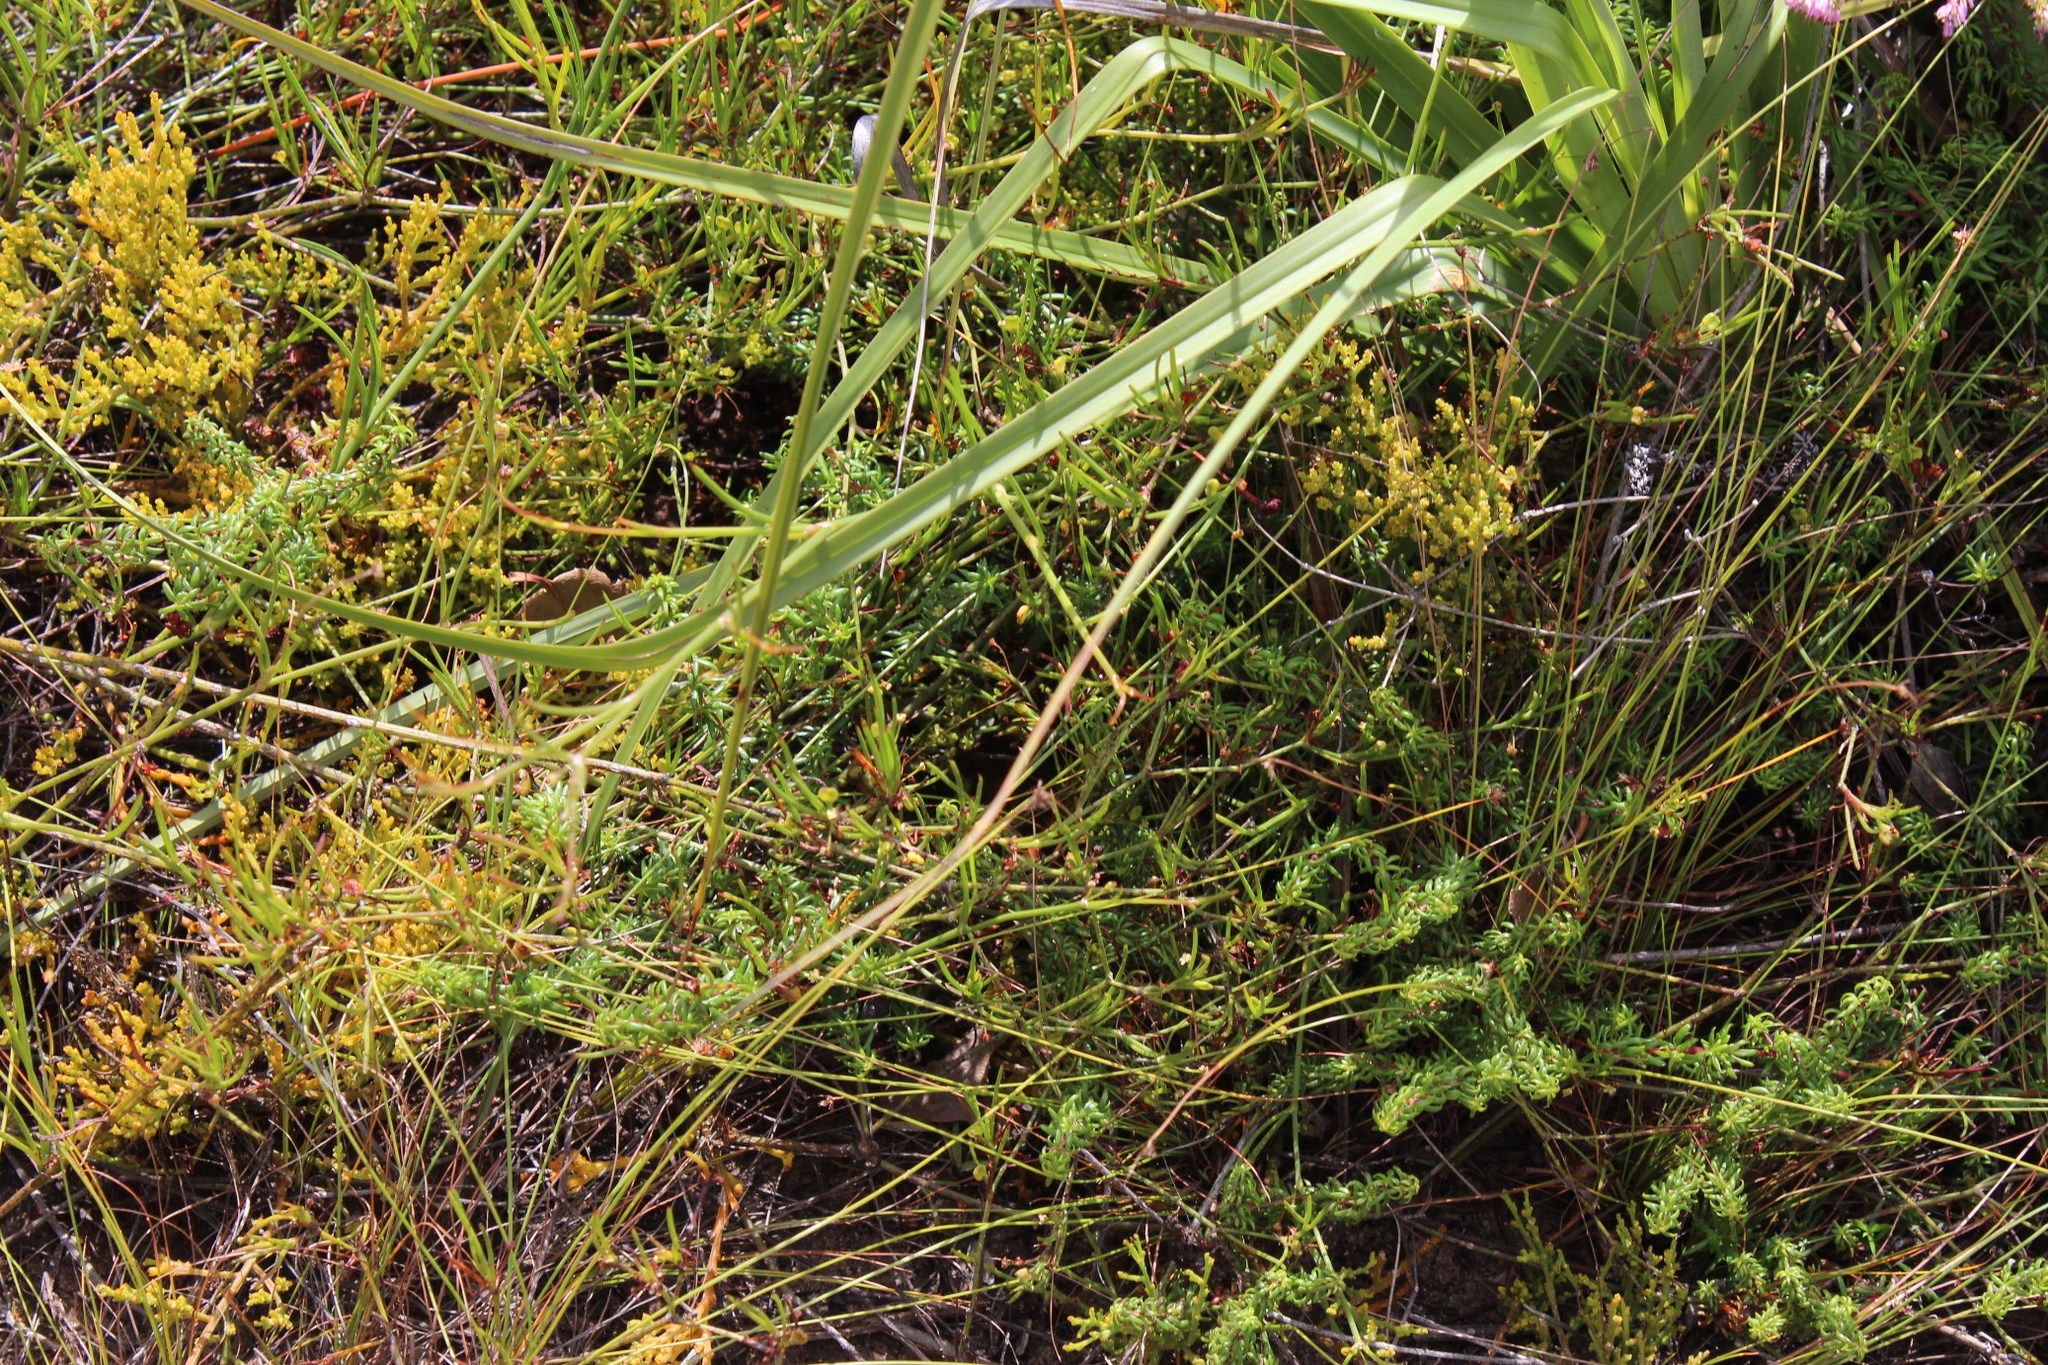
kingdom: Plantae
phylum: Tracheophyta
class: Magnoliopsida
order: Santalales
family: Thesiaceae
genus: Thesium
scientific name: Thesium fragile
